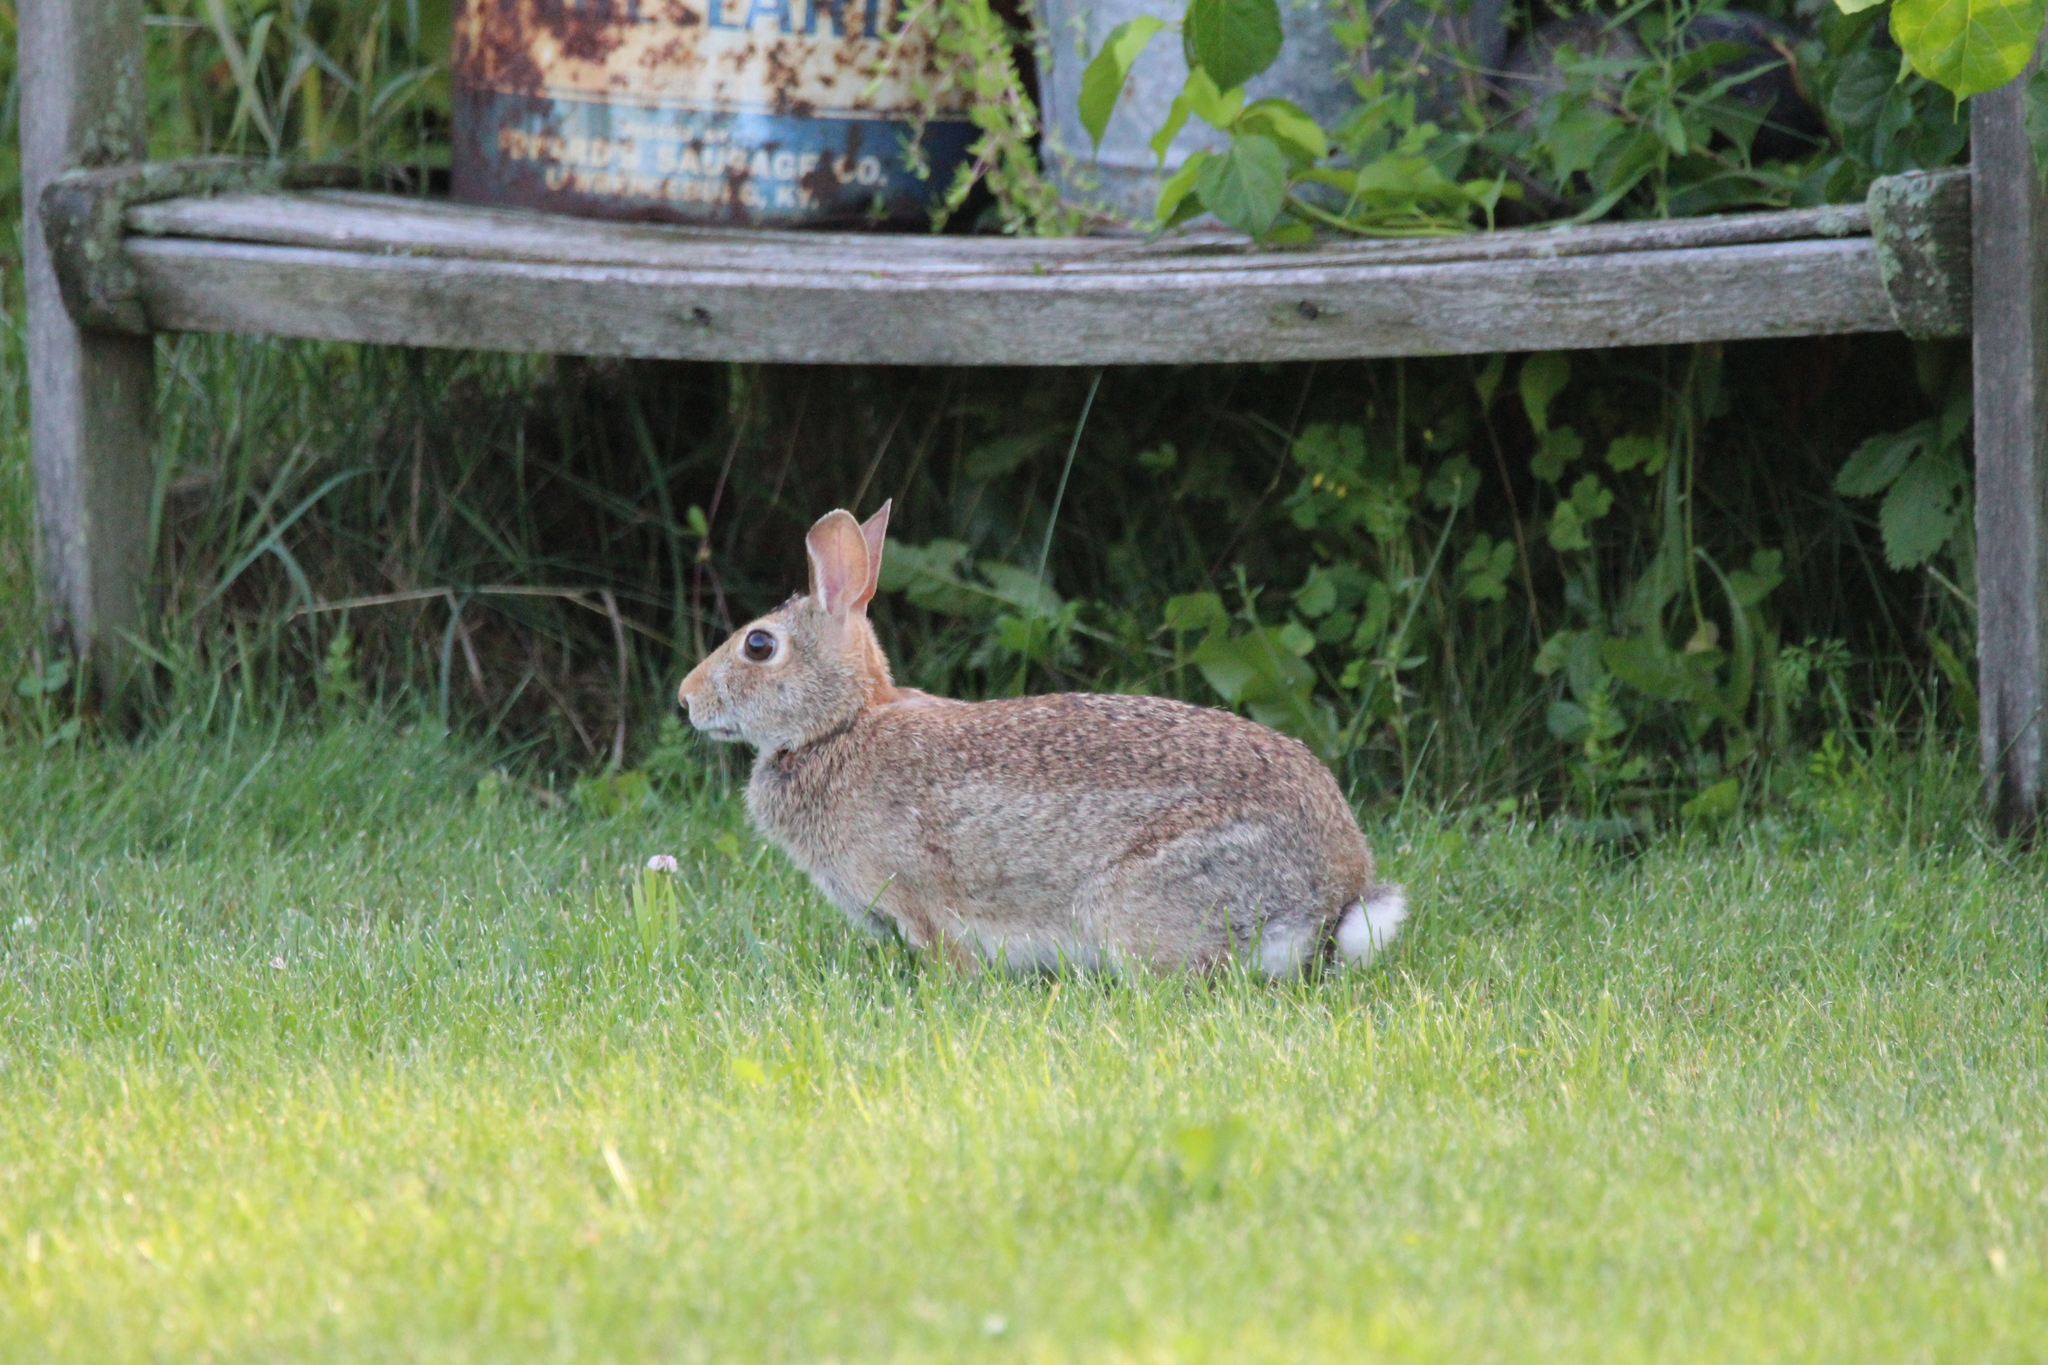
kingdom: Animalia
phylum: Chordata
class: Mammalia
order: Lagomorpha
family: Leporidae
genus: Sylvilagus
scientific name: Sylvilagus floridanus
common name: Eastern cottontail
